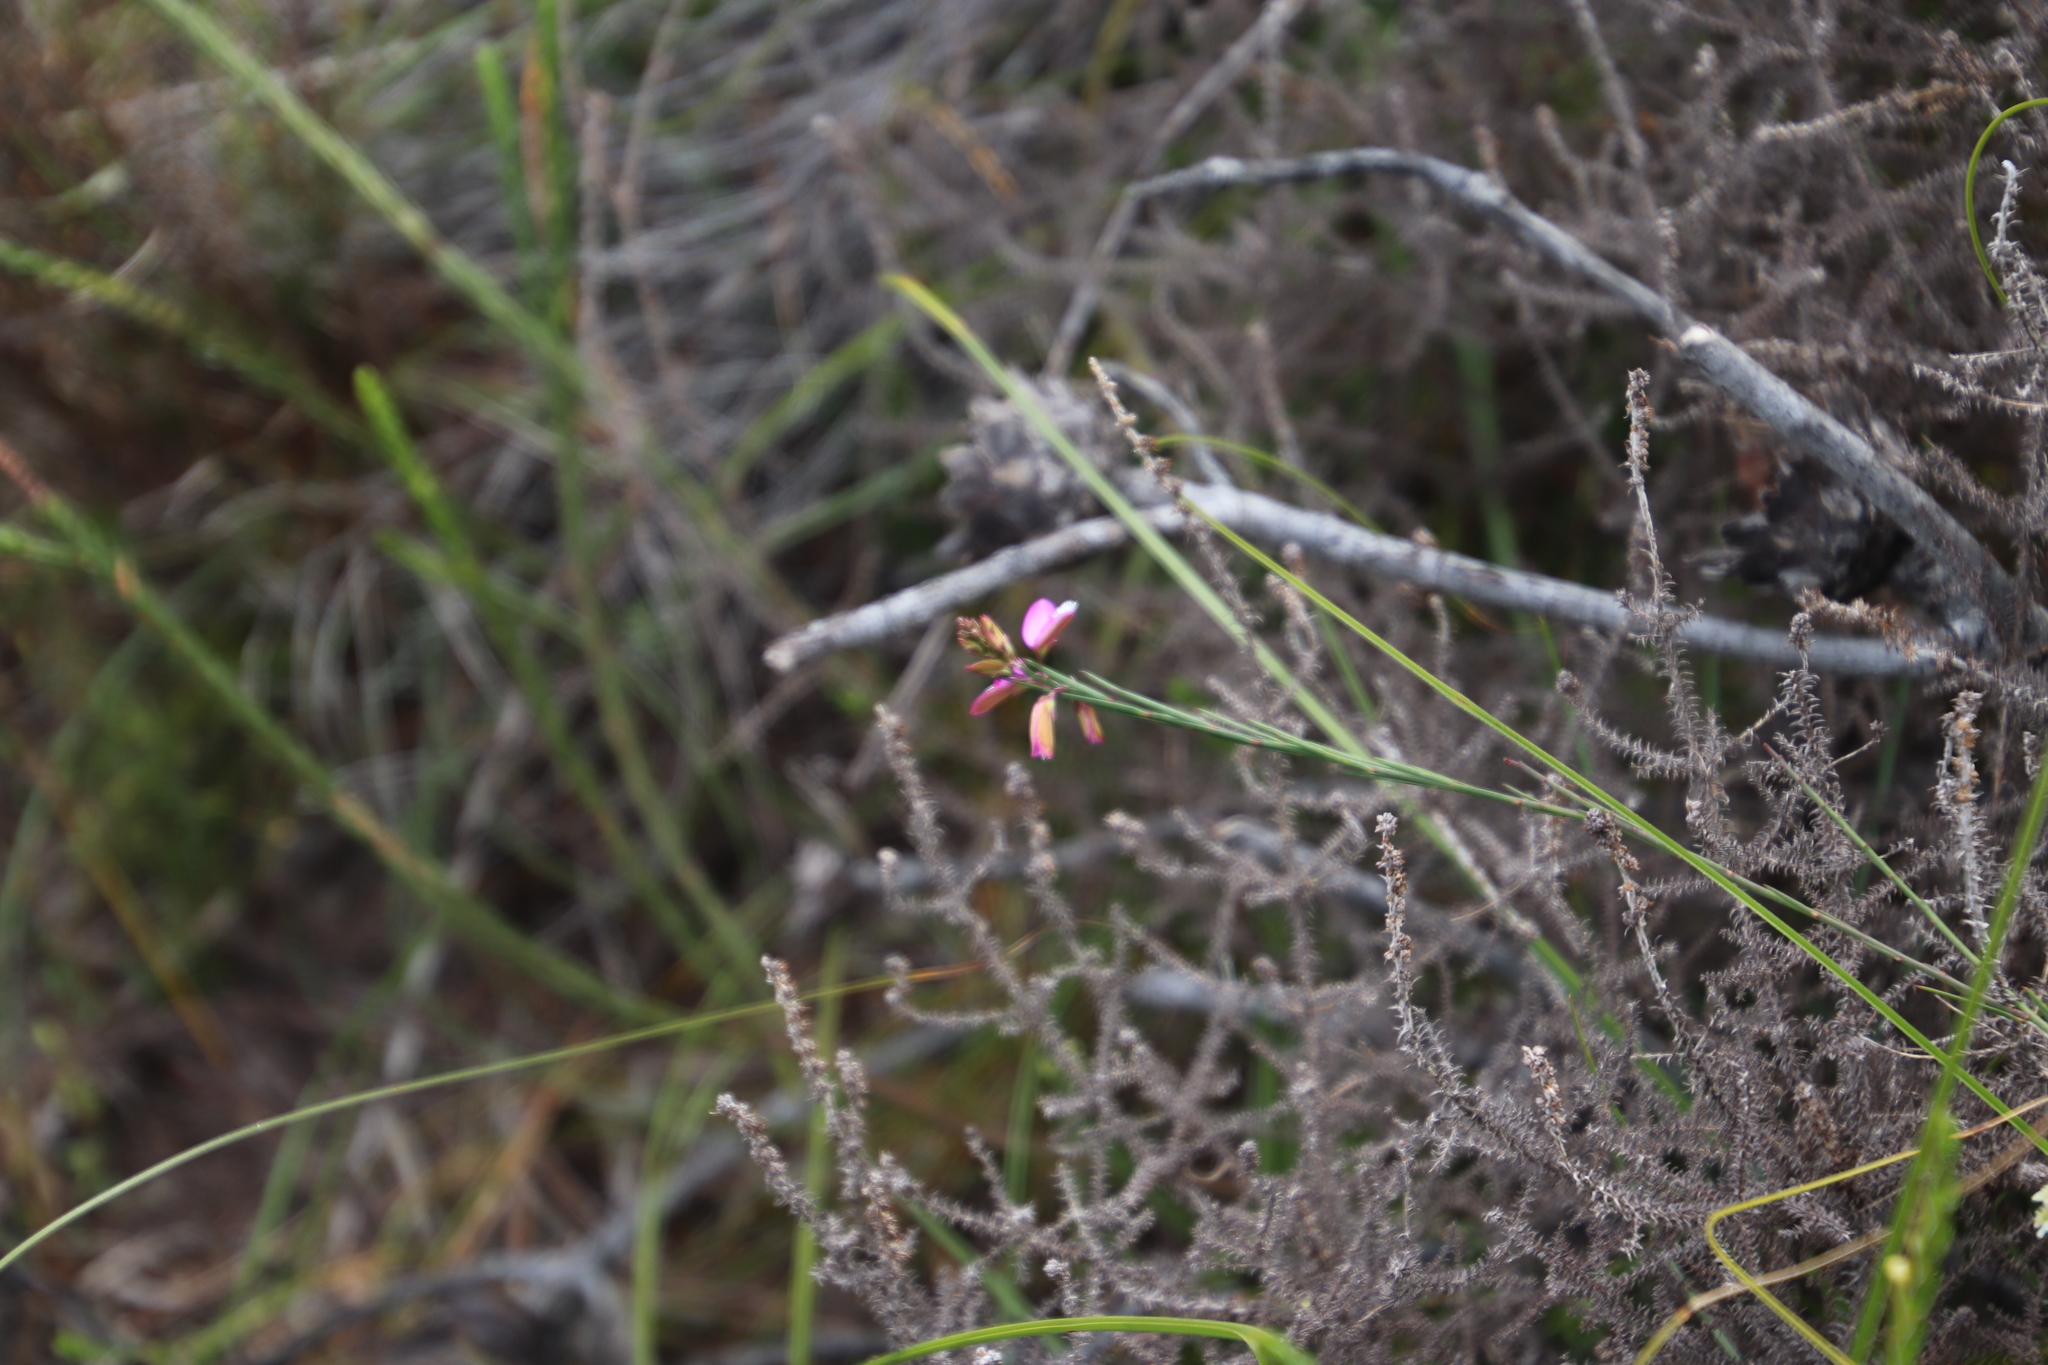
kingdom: Plantae
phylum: Tracheophyta
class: Magnoliopsida
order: Fabales
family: Polygalaceae
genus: Polygala
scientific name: Polygala garcini
